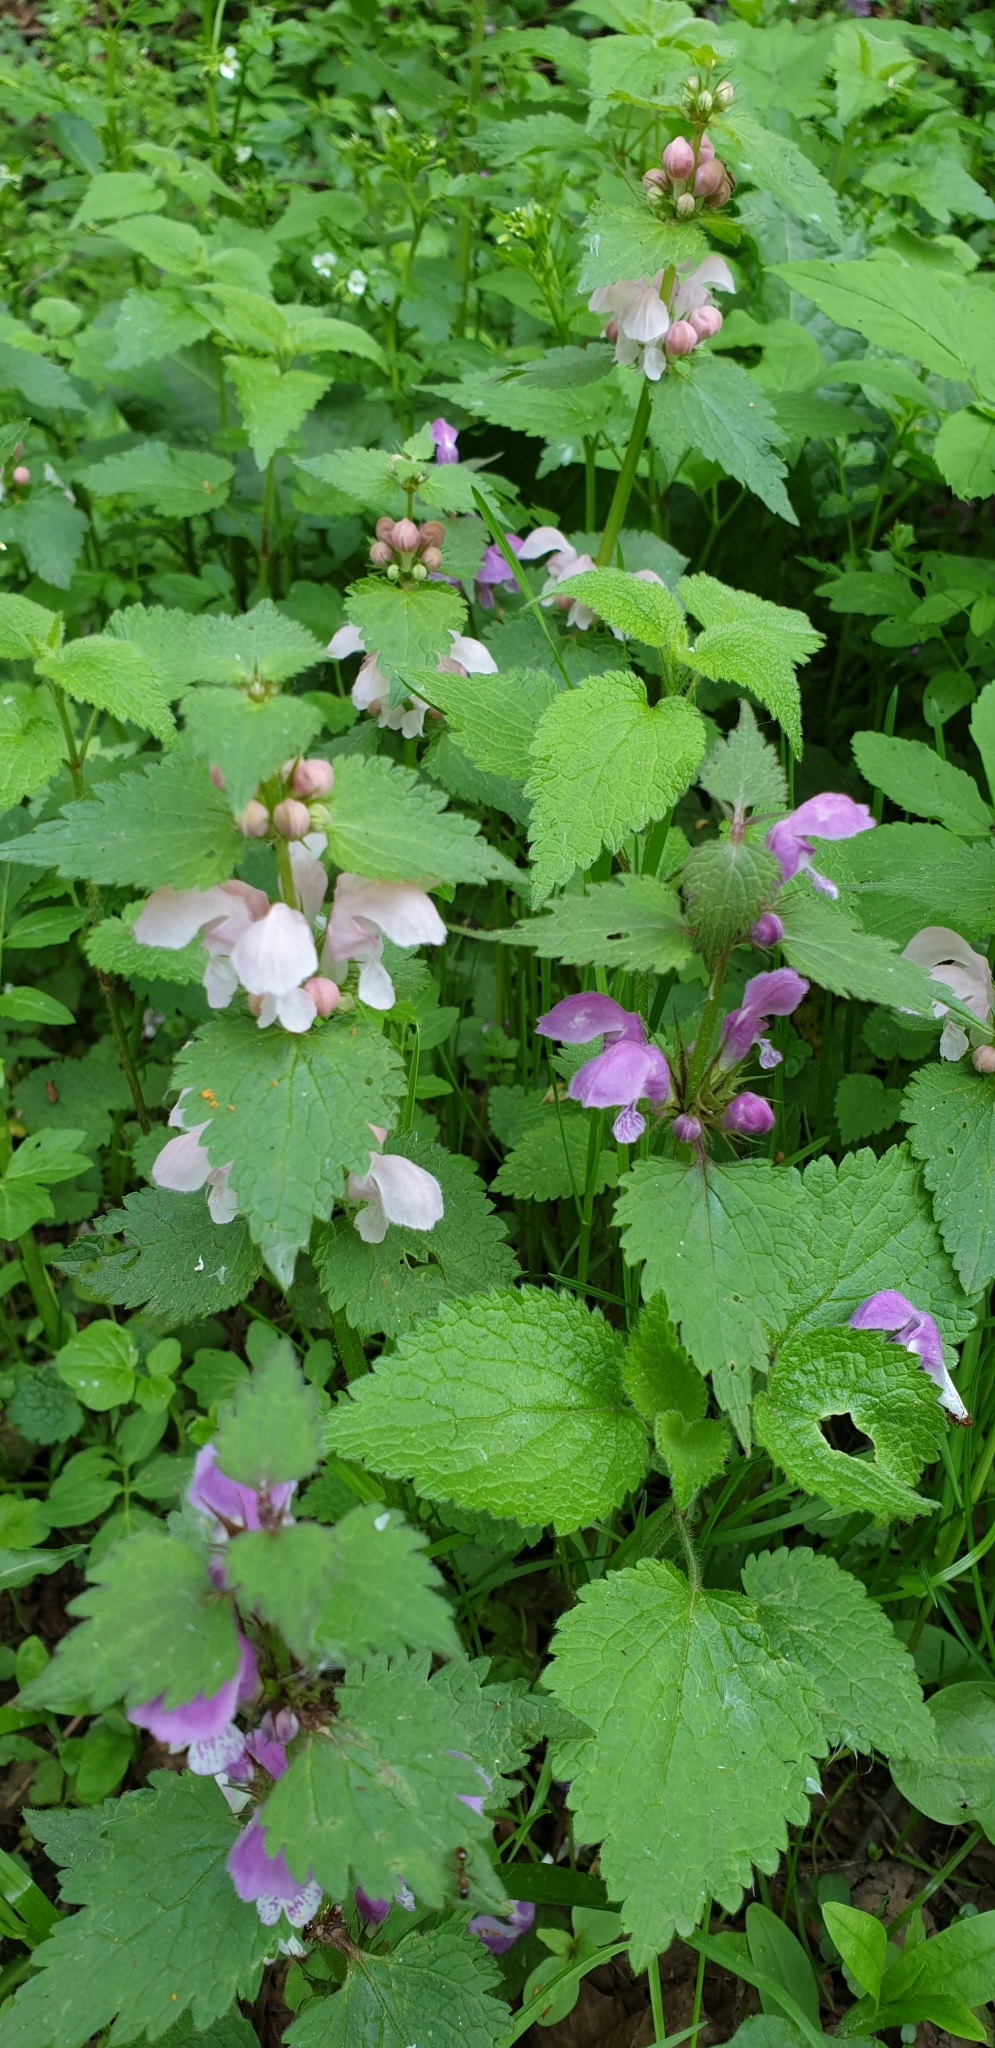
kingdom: Plantae
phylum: Tracheophyta
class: Magnoliopsida
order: Lamiales
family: Lamiaceae
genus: Lamium
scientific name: Lamium maculatum
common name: Spotted dead-nettle
